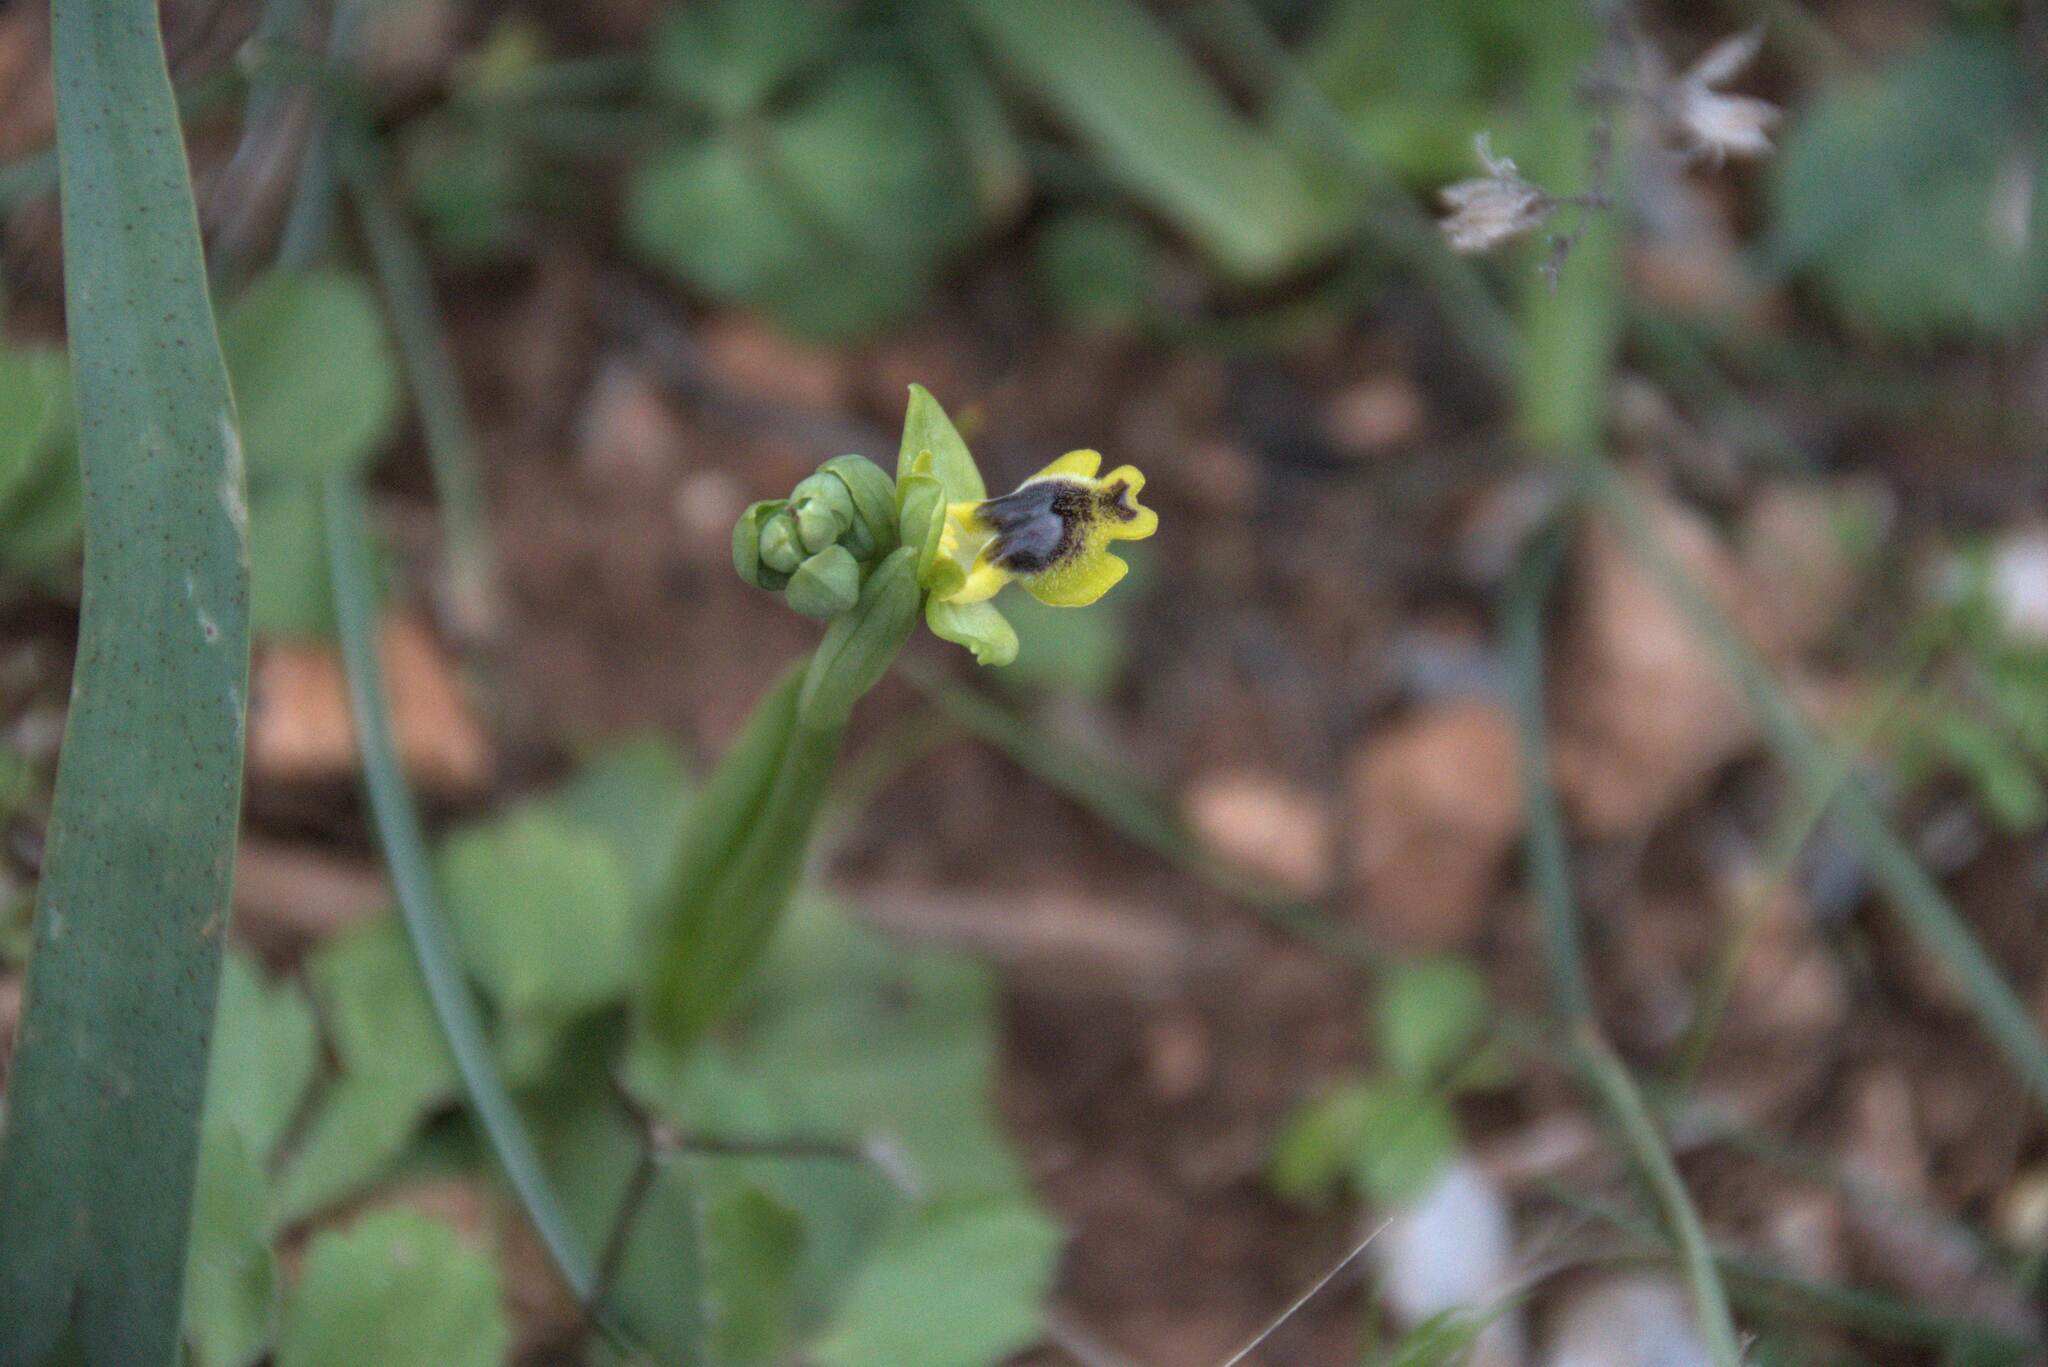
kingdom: Plantae
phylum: Tracheophyta
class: Liliopsida
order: Asparagales
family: Orchidaceae
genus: Ophrys
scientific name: Ophrys lutea
